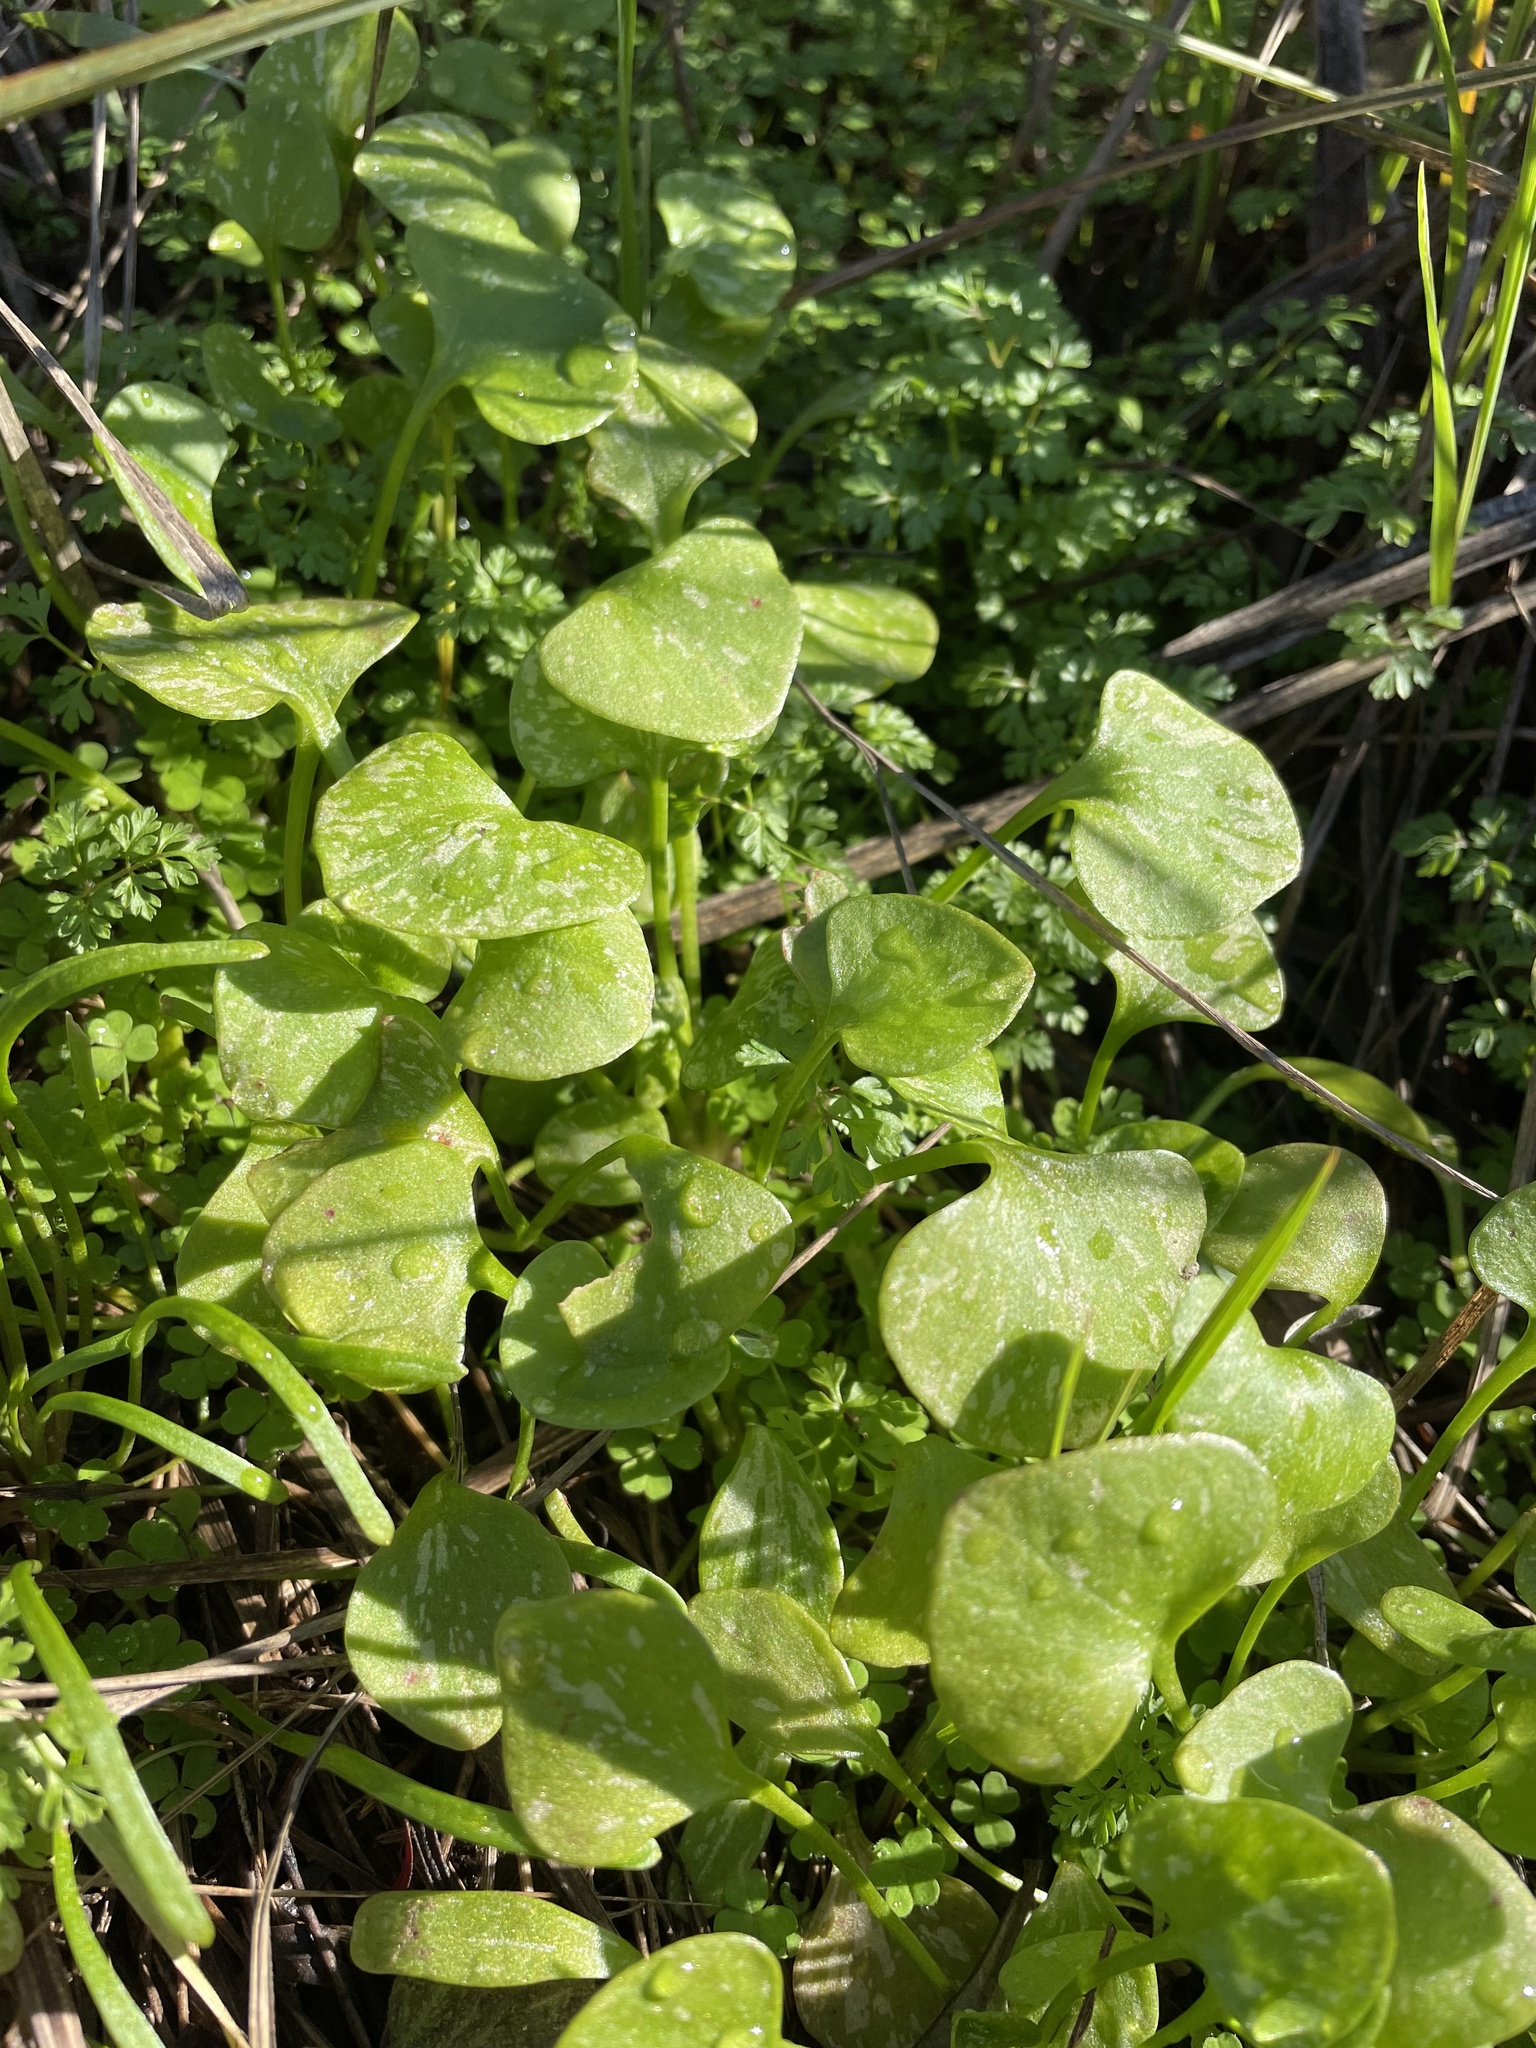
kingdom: Plantae
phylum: Tracheophyta
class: Magnoliopsida
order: Caryophyllales
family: Montiaceae
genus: Claytonia
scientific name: Claytonia perfoliata
